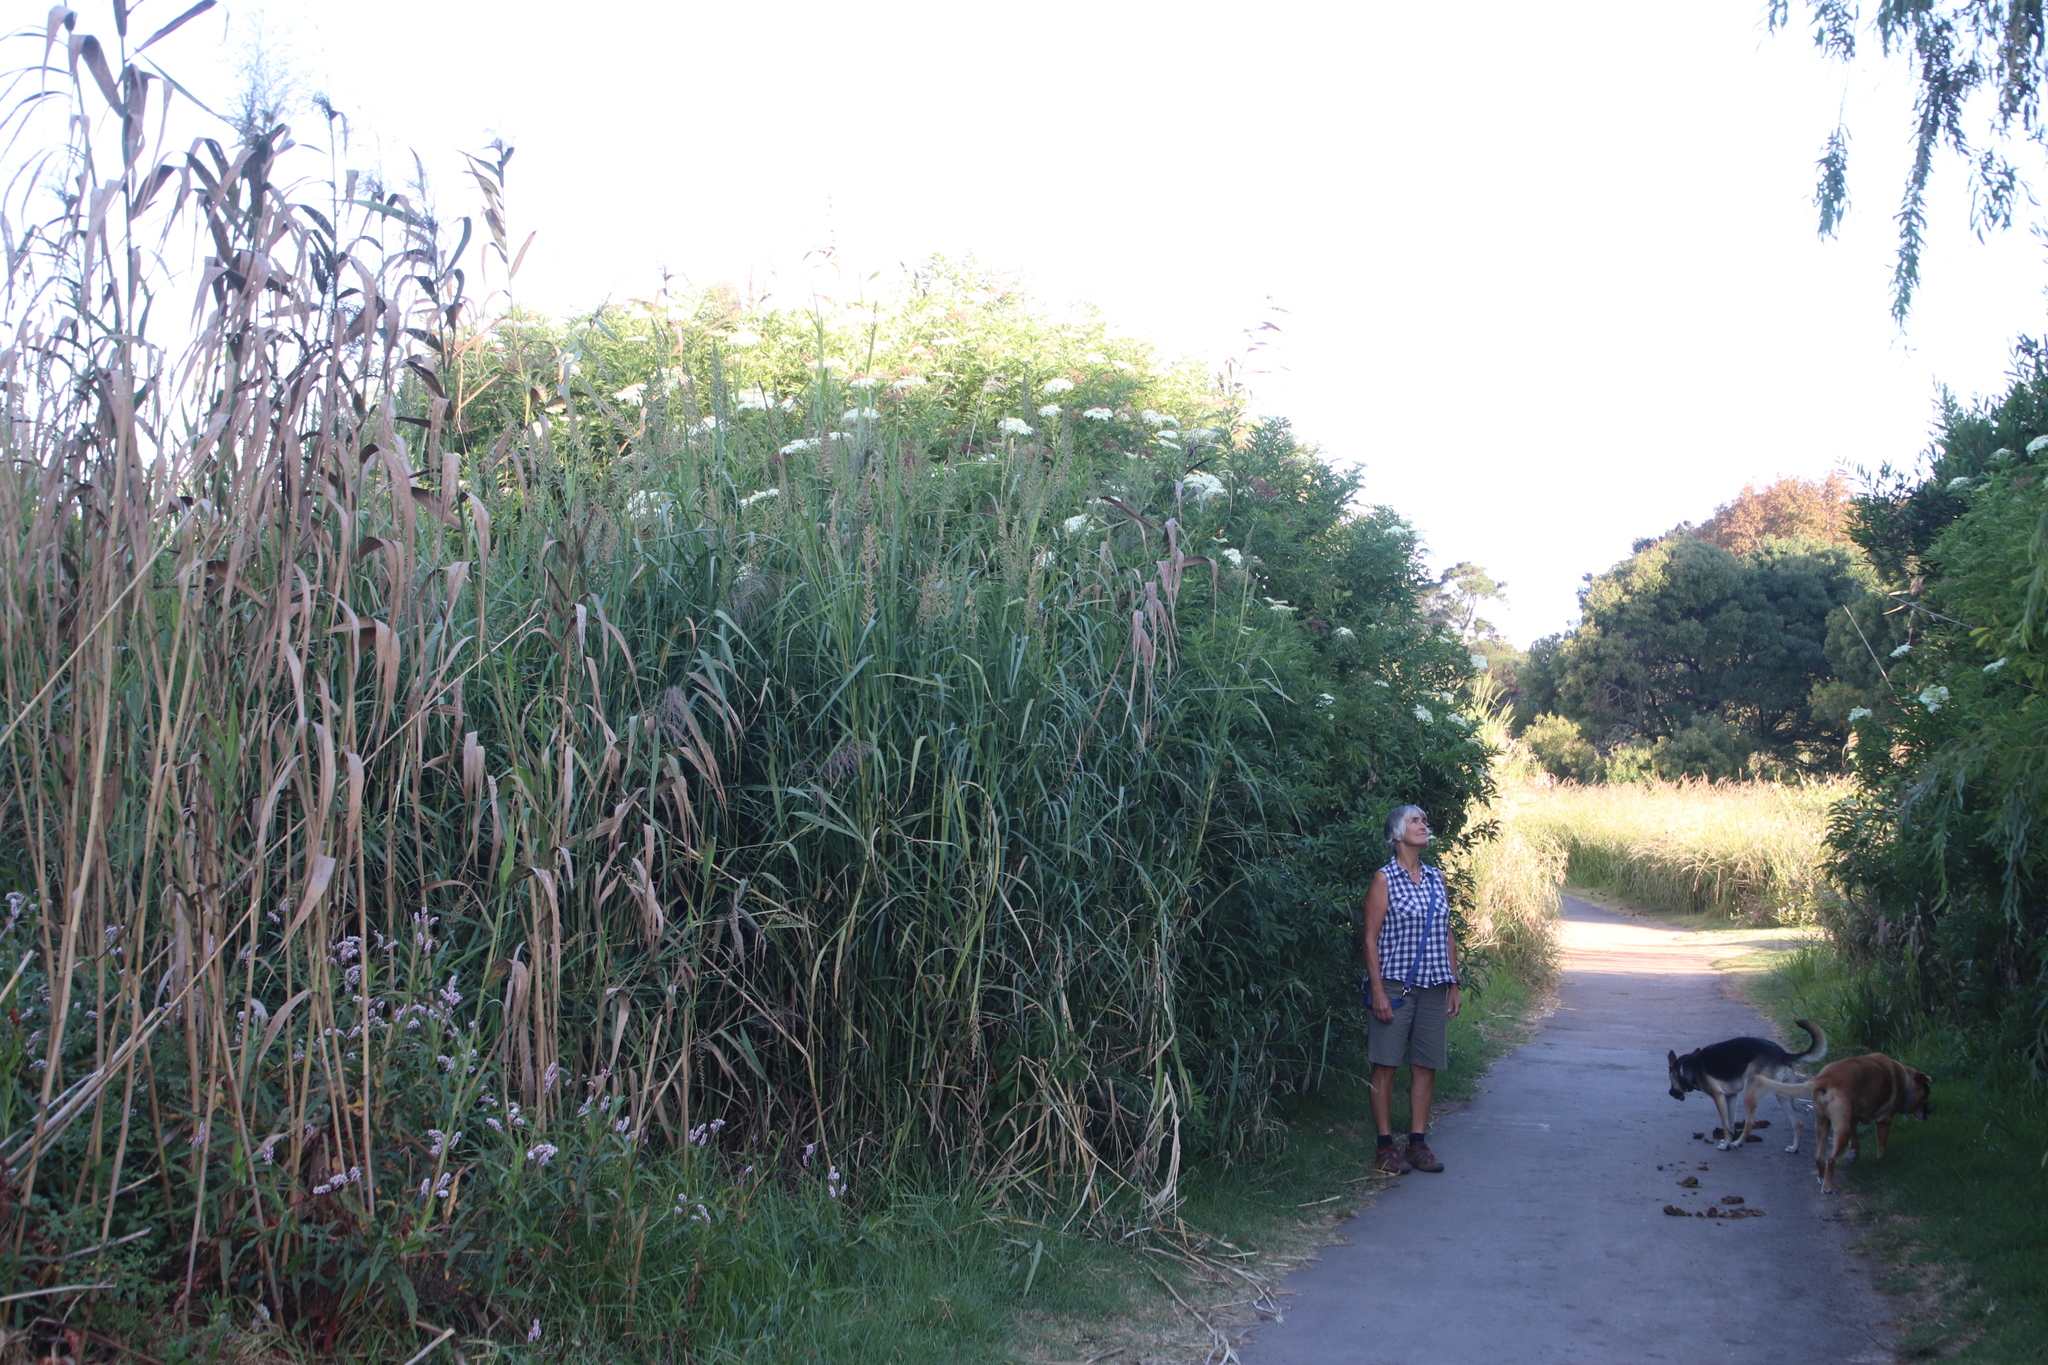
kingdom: Plantae
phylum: Tracheophyta
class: Magnoliopsida
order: Dipsacales
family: Viburnaceae
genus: Sambucus
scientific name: Sambucus nigra
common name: Elder
